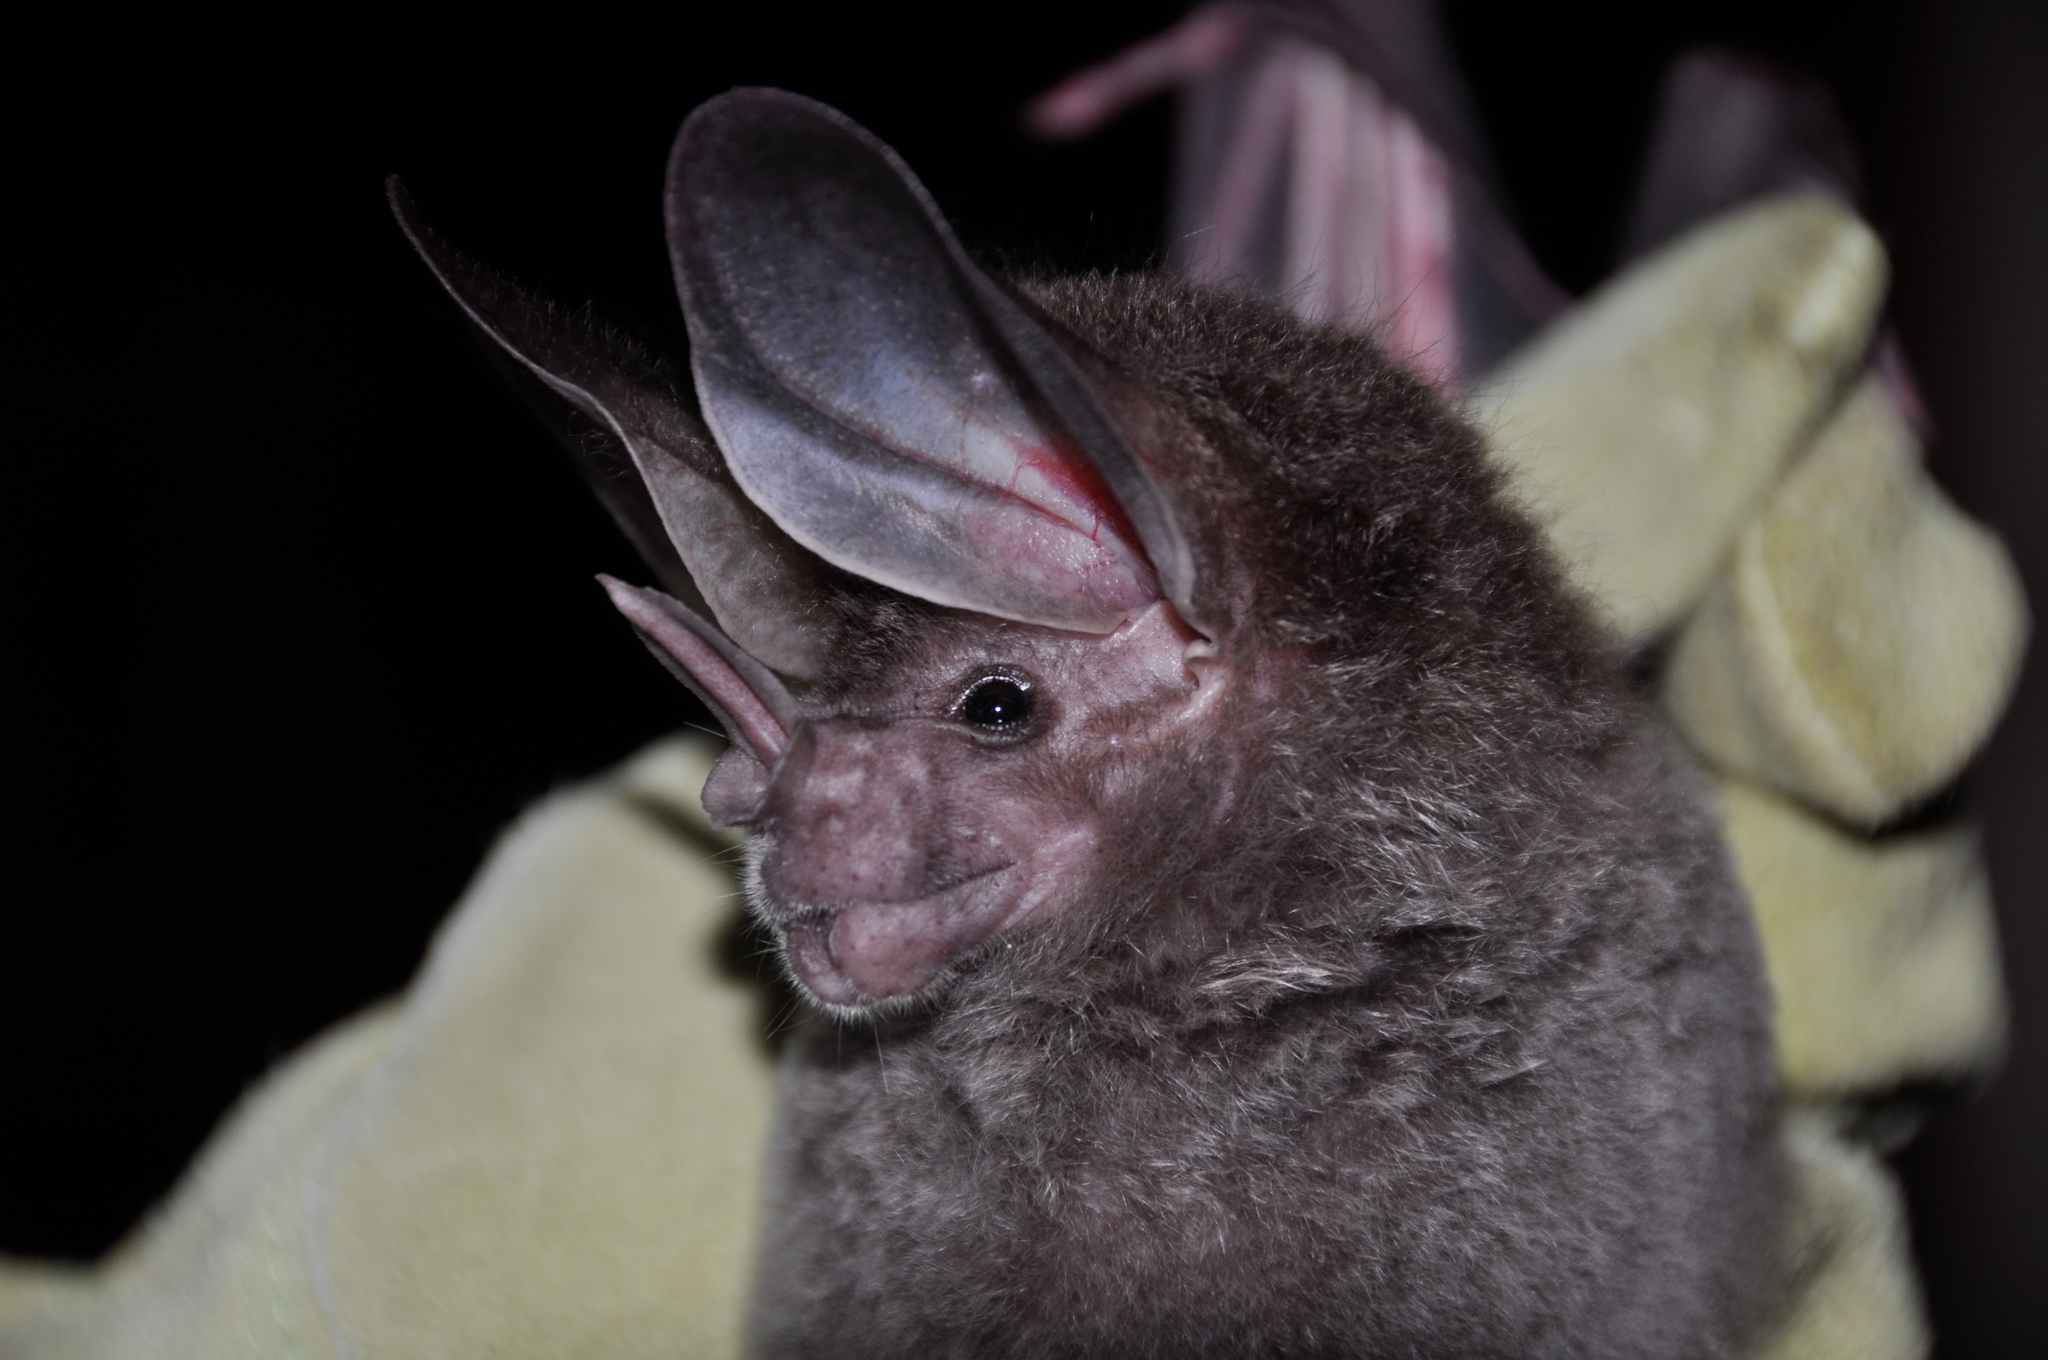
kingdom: Animalia
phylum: Chordata
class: Mammalia
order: Chiroptera
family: Phyllostomidae
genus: Chrotopterus
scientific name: Chrotopterus auritus
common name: Woolly false vampire bat
